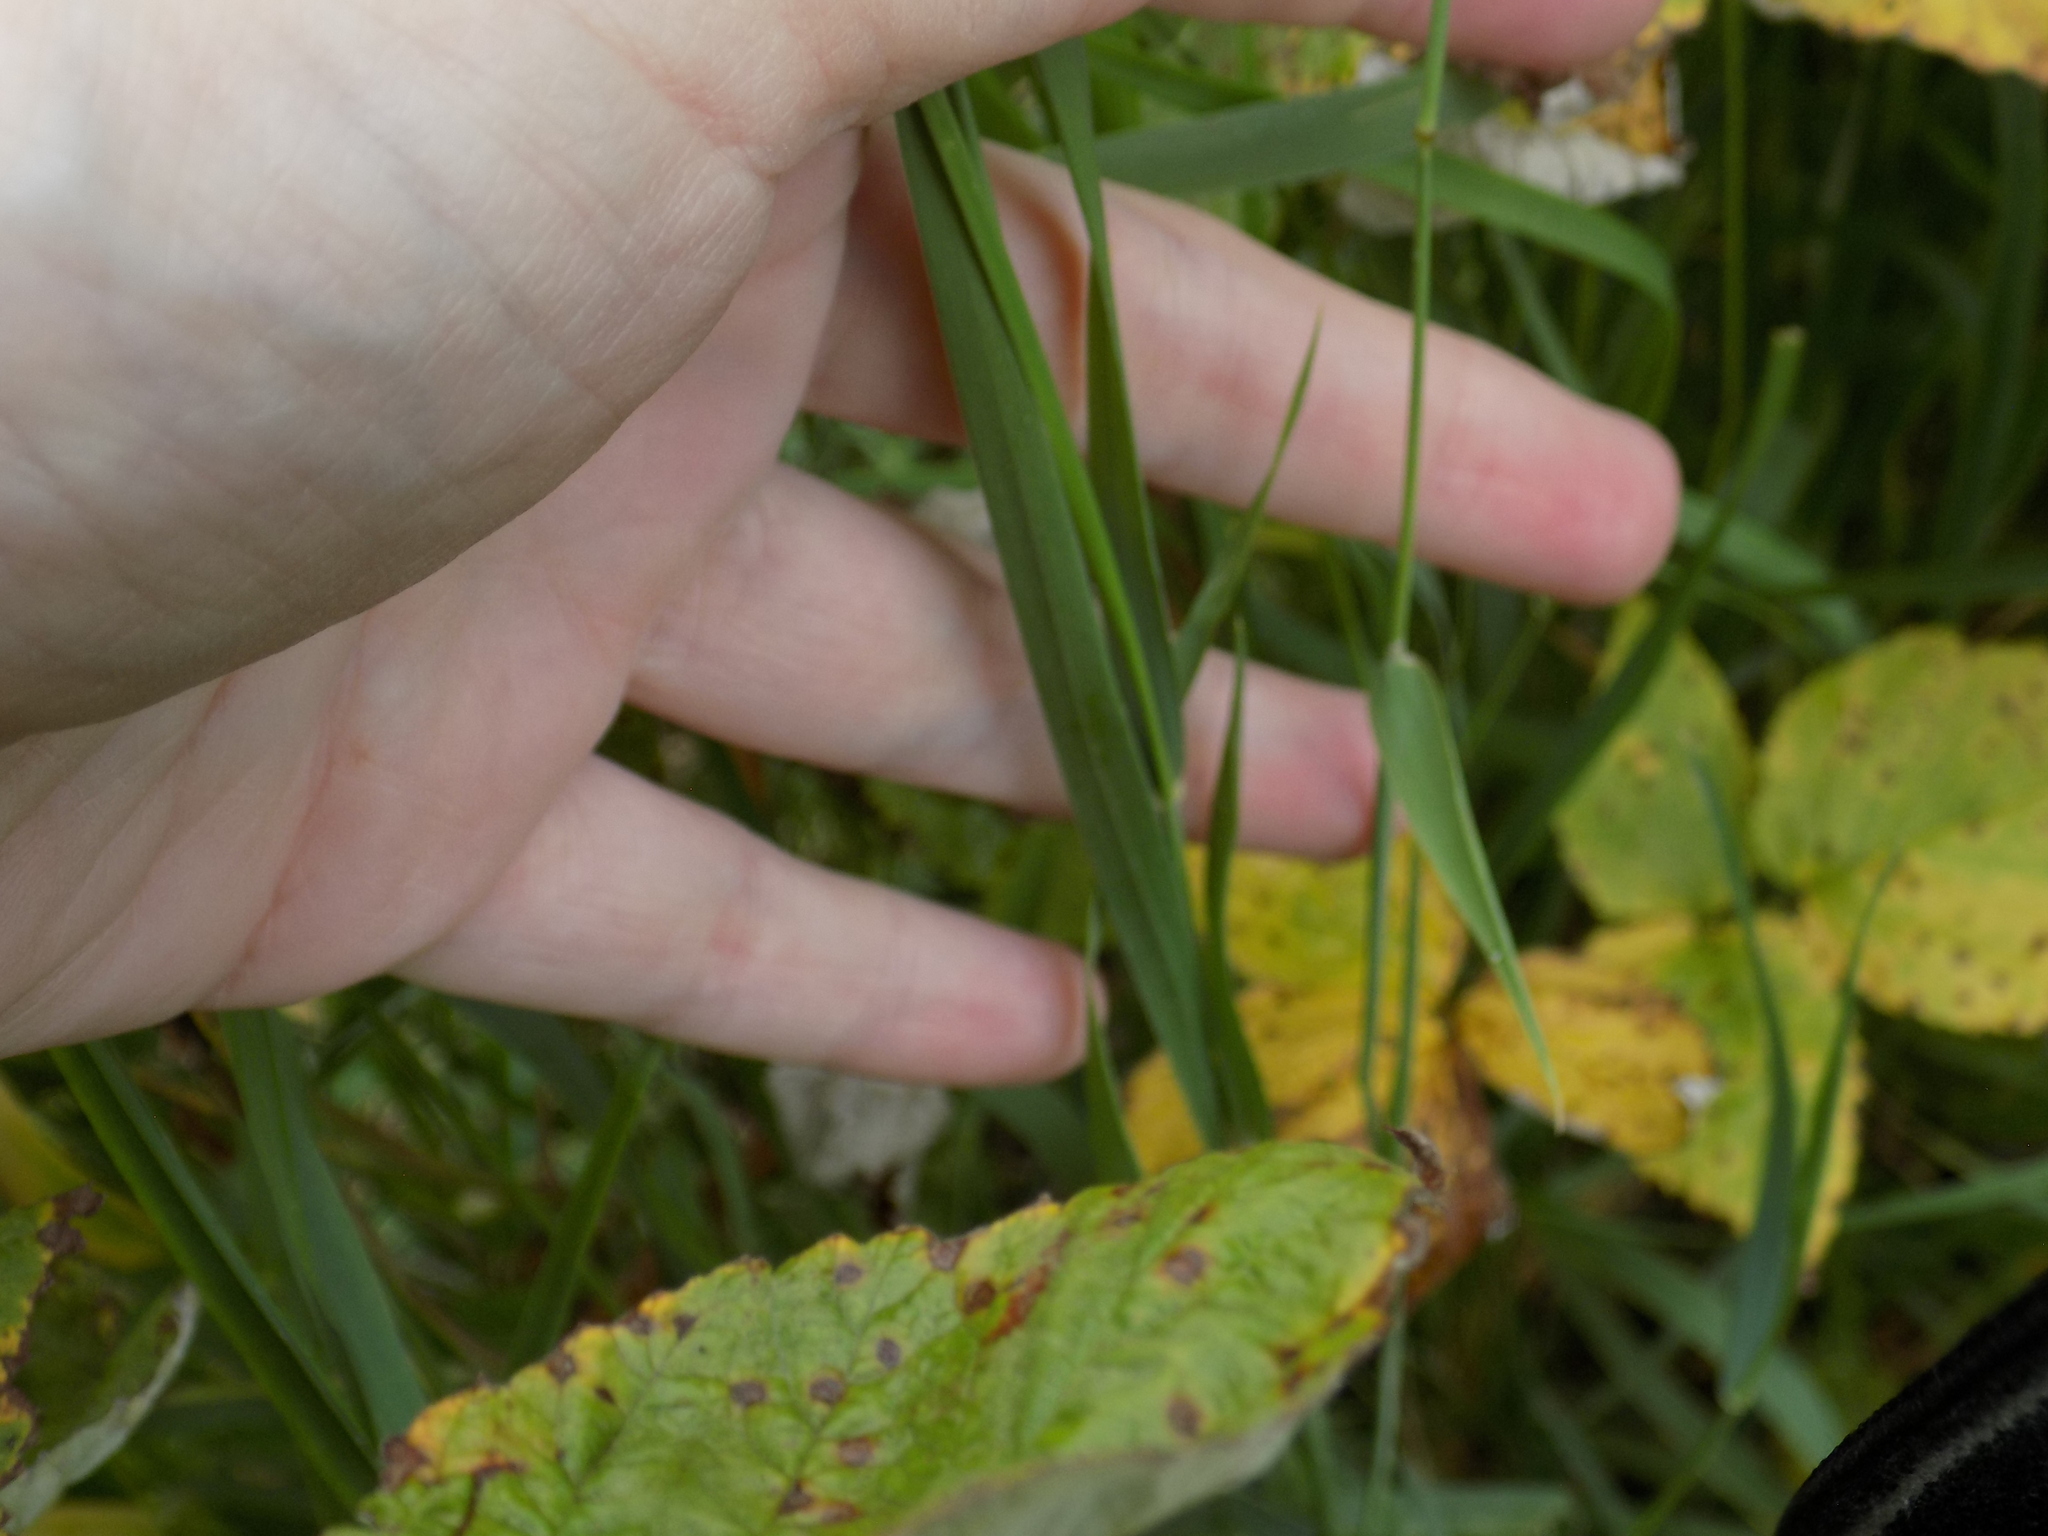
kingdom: Plantae
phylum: Tracheophyta
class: Liliopsida
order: Poales
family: Poaceae
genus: Phleum
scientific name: Phleum pratense
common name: Timothy grass
